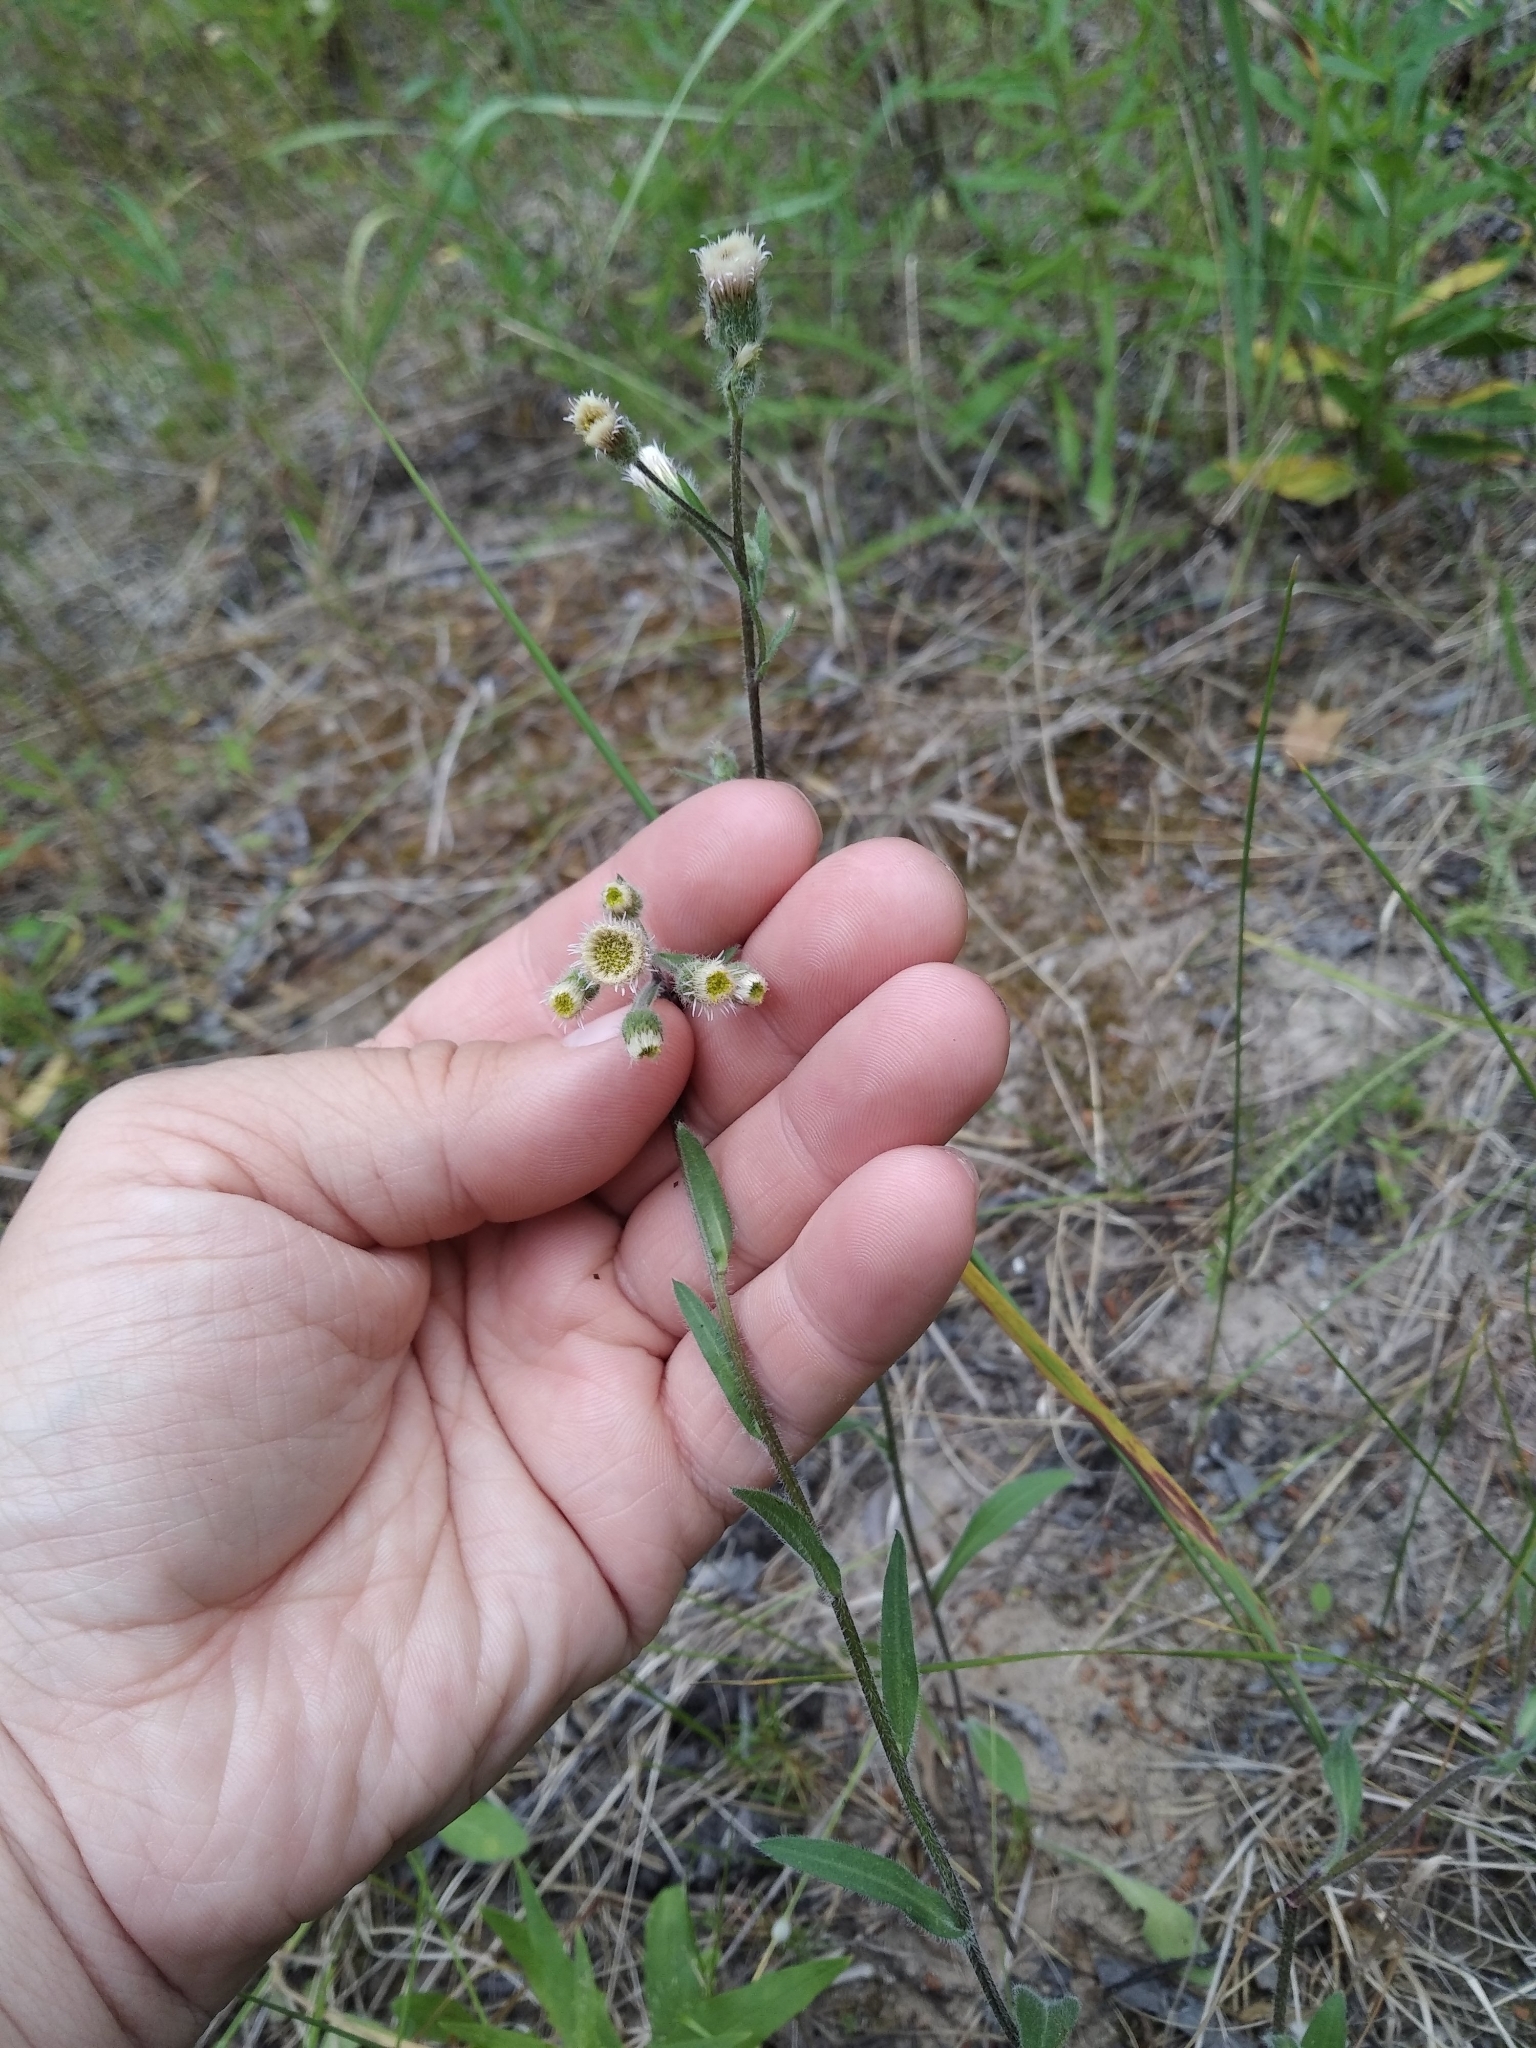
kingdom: Plantae
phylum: Tracheophyta
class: Magnoliopsida
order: Asterales
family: Asteraceae
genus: Erigeron
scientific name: Erigeron acris
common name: Blue fleabane
